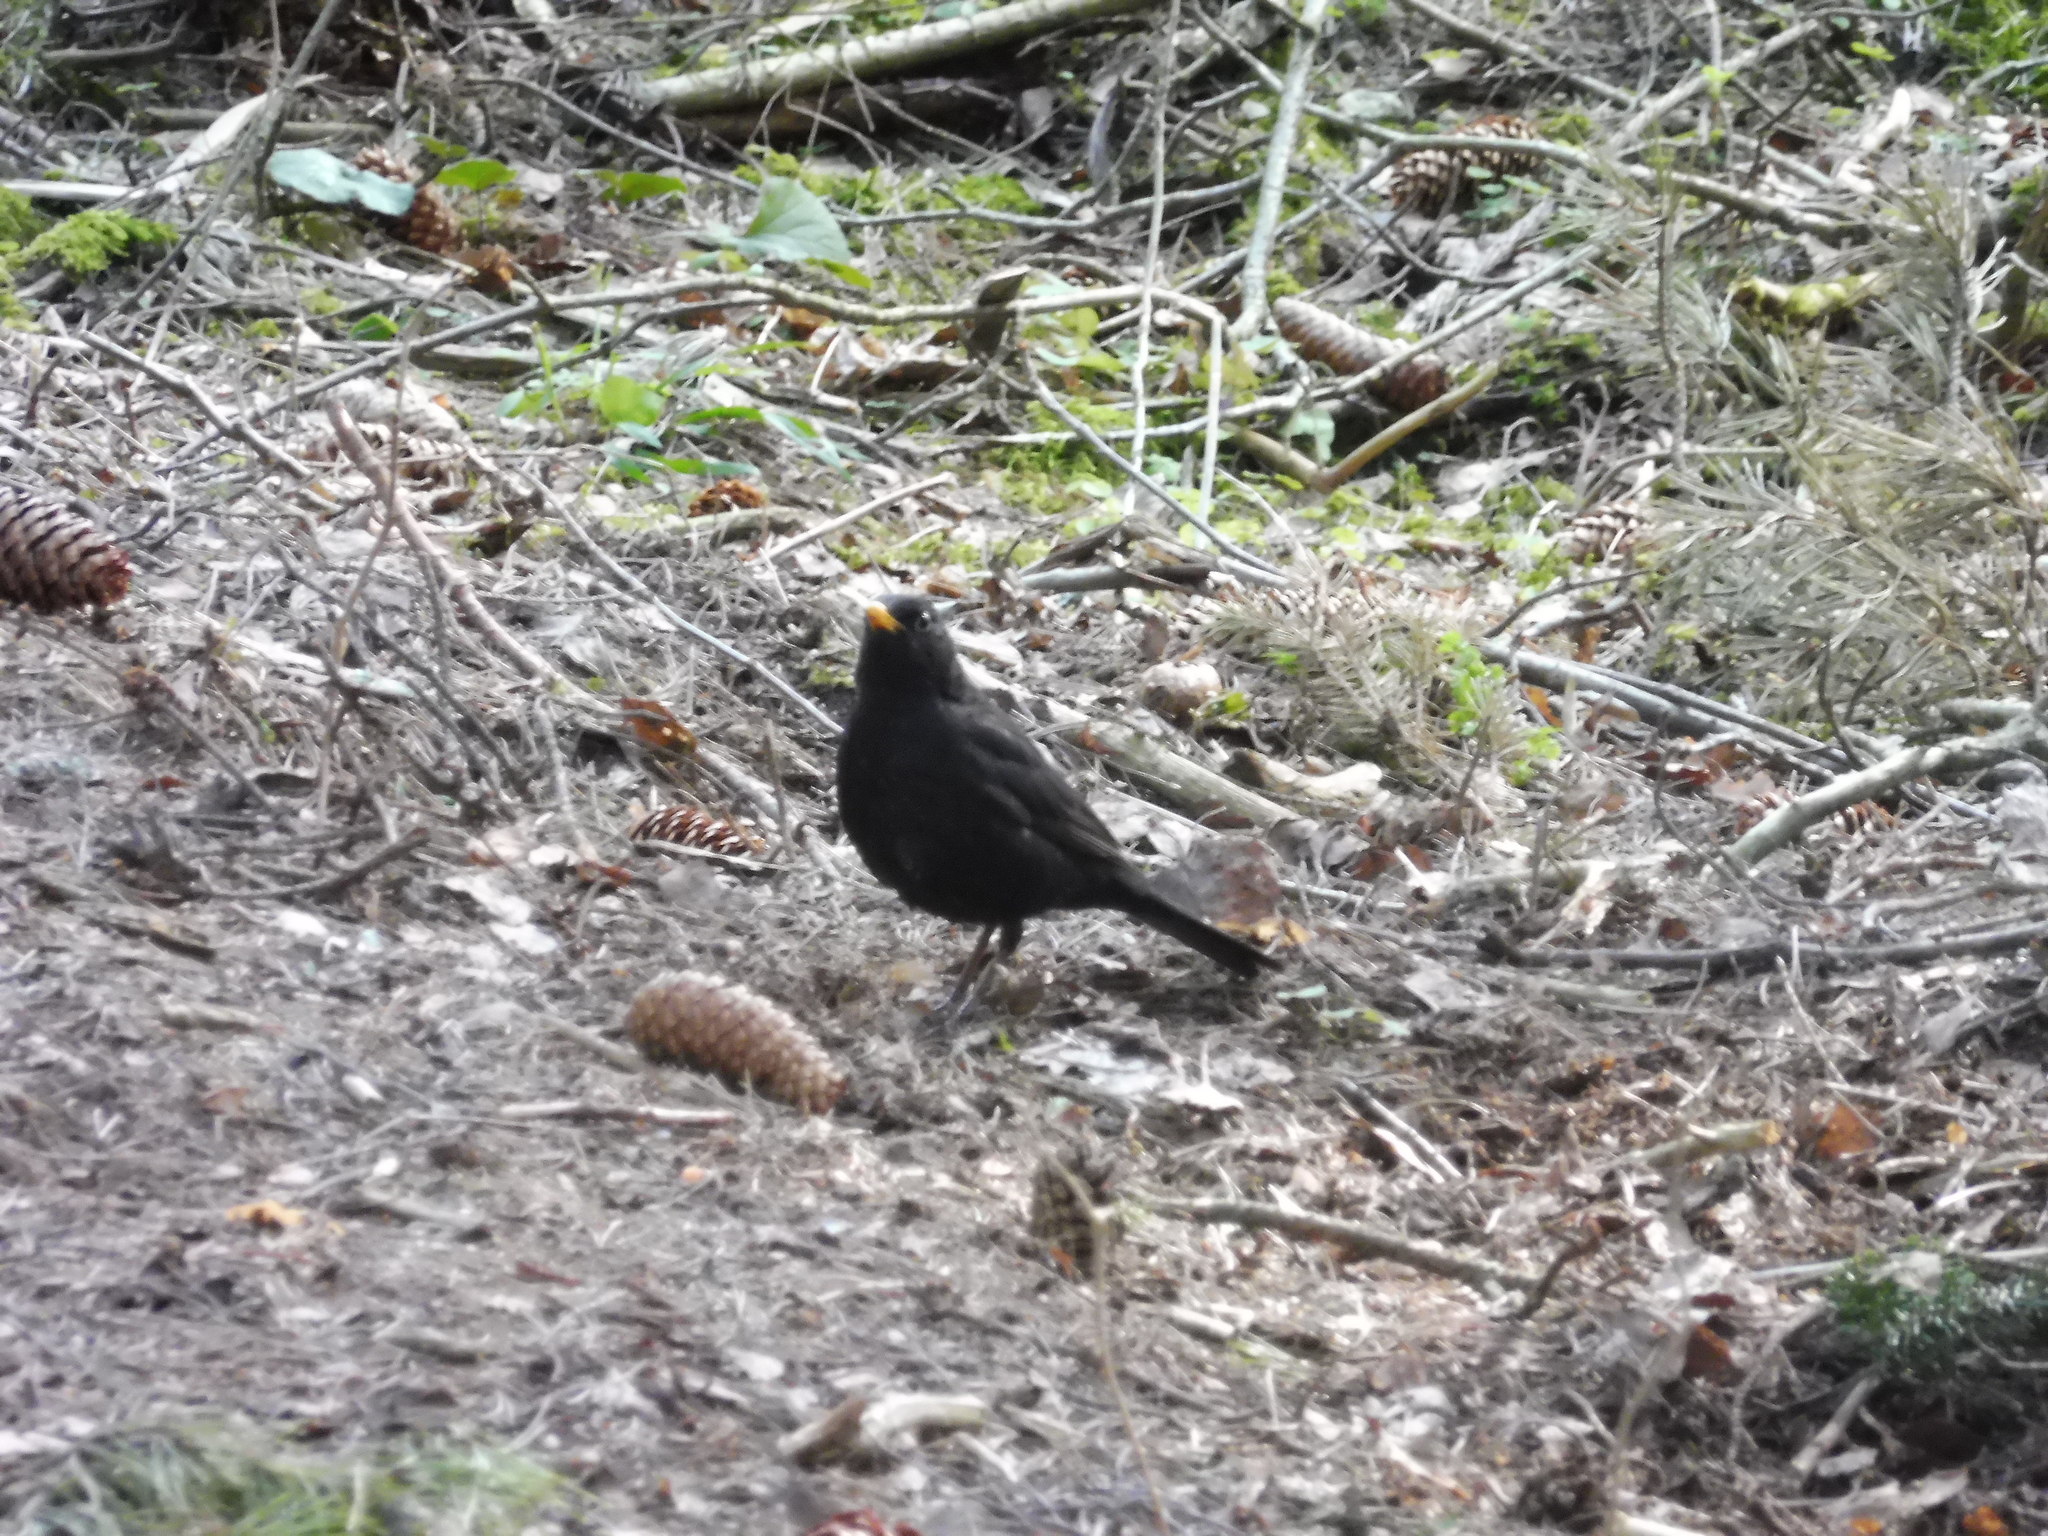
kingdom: Animalia
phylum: Chordata
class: Aves
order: Passeriformes
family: Turdidae
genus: Turdus
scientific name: Turdus merula
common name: Common blackbird
